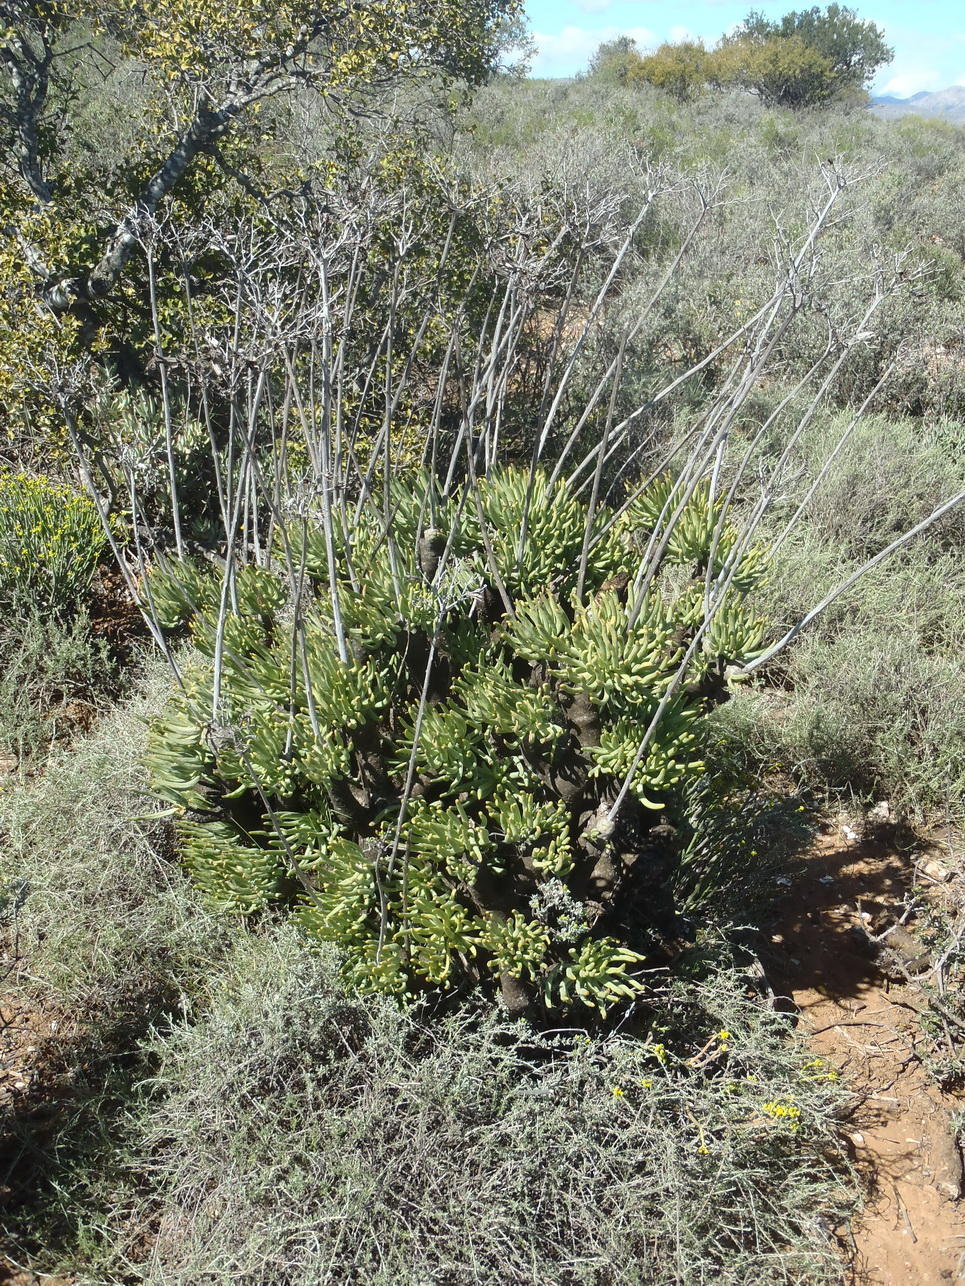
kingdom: Plantae
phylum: Tracheophyta
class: Magnoliopsida
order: Saxifragales
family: Crassulaceae
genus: Tylecodon
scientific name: Tylecodon cacaliodes
